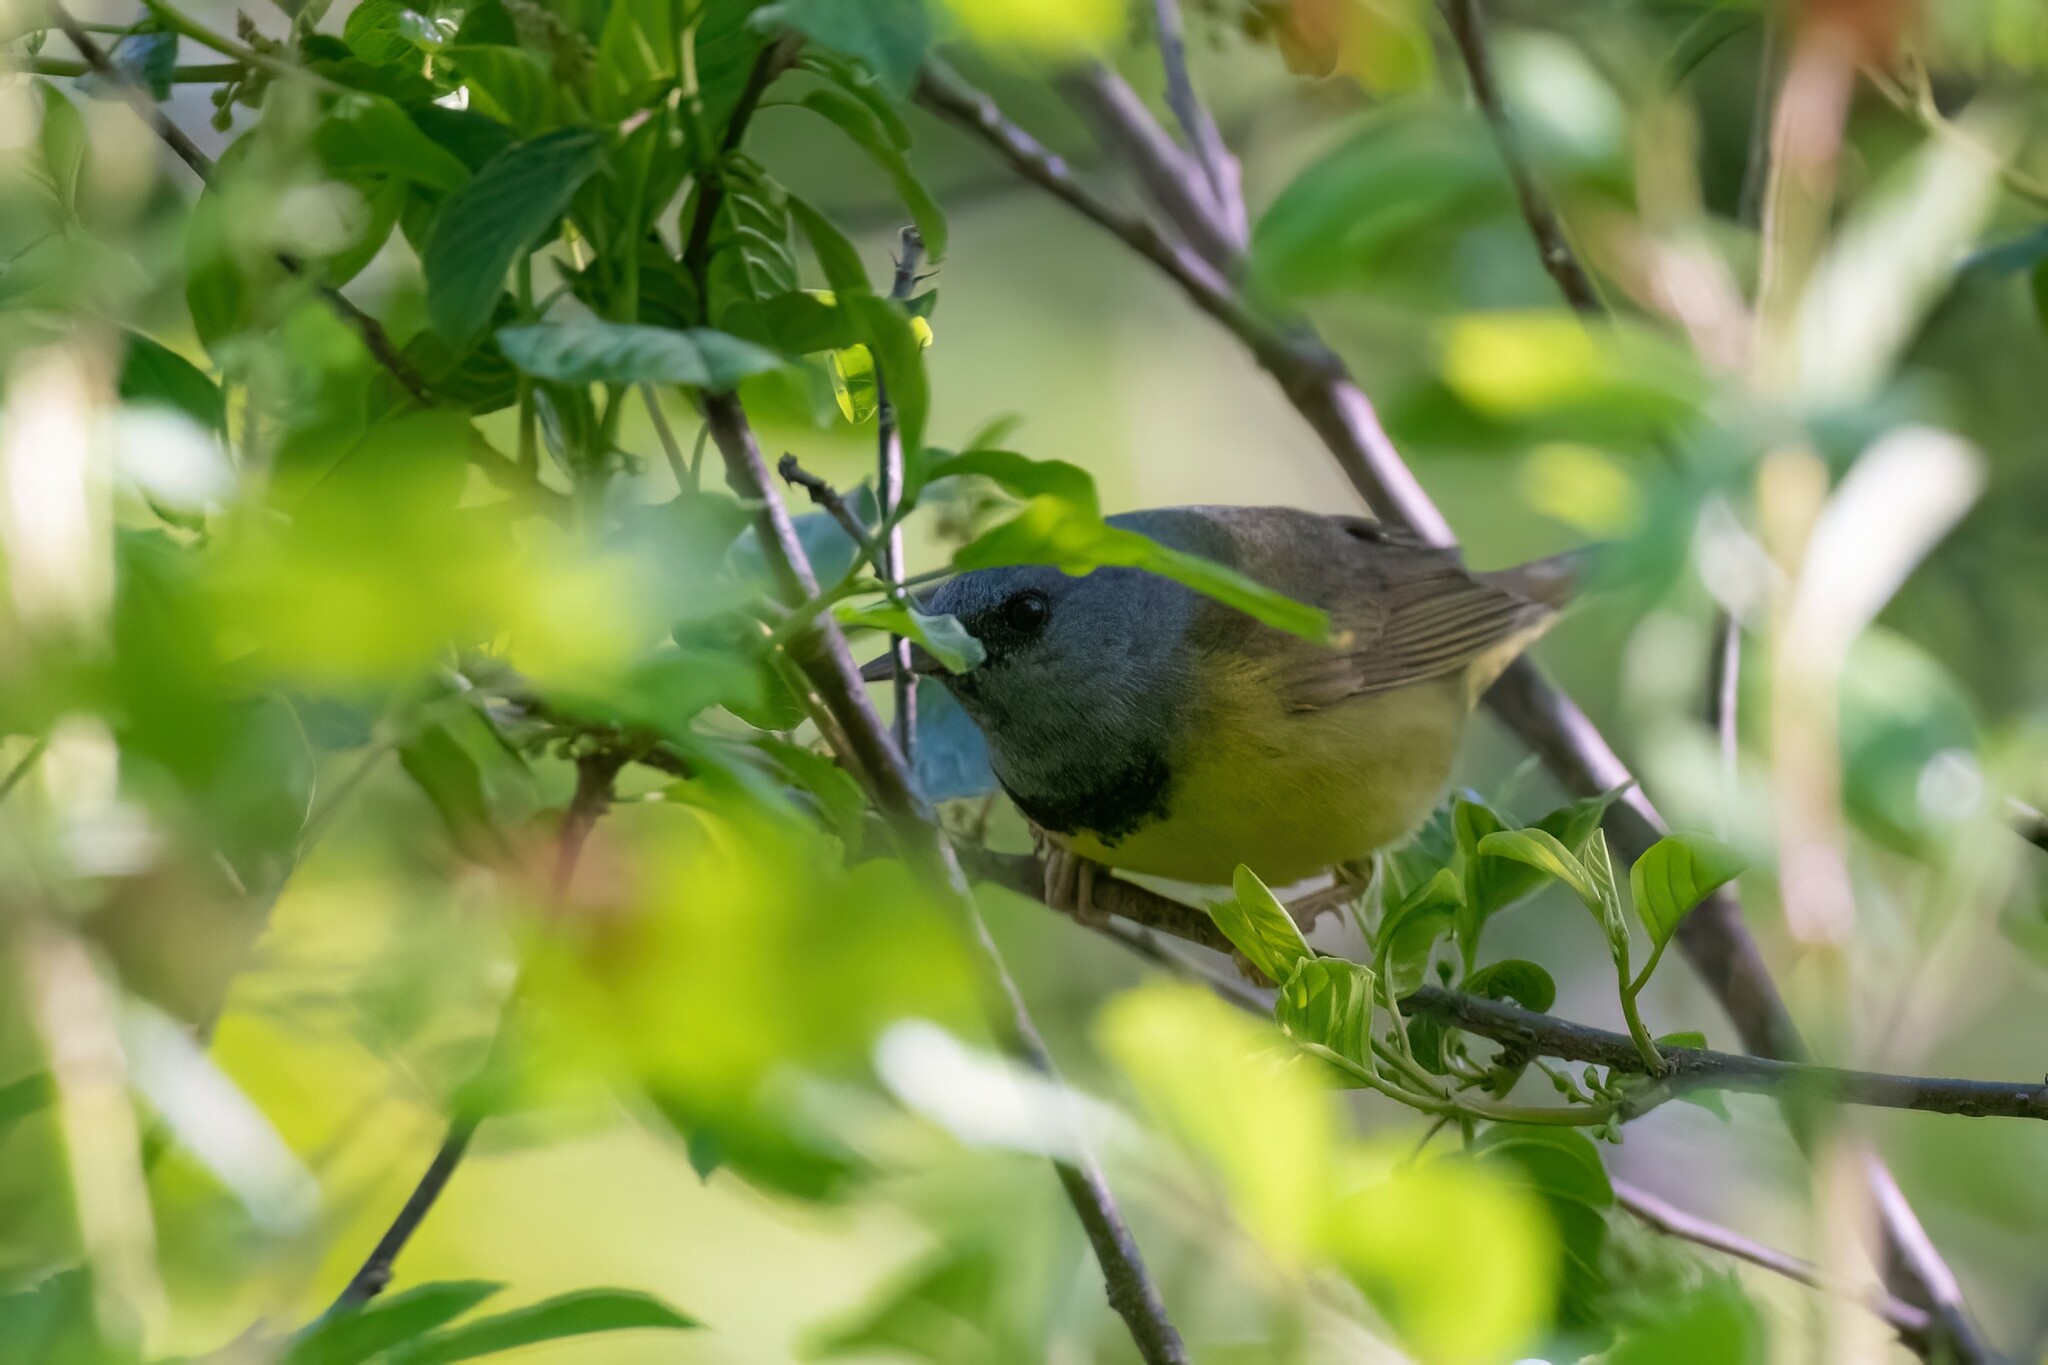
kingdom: Animalia
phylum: Chordata
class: Aves
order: Passeriformes
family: Parulidae
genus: Geothlypis
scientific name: Geothlypis philadelphia
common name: Mourning warbler
